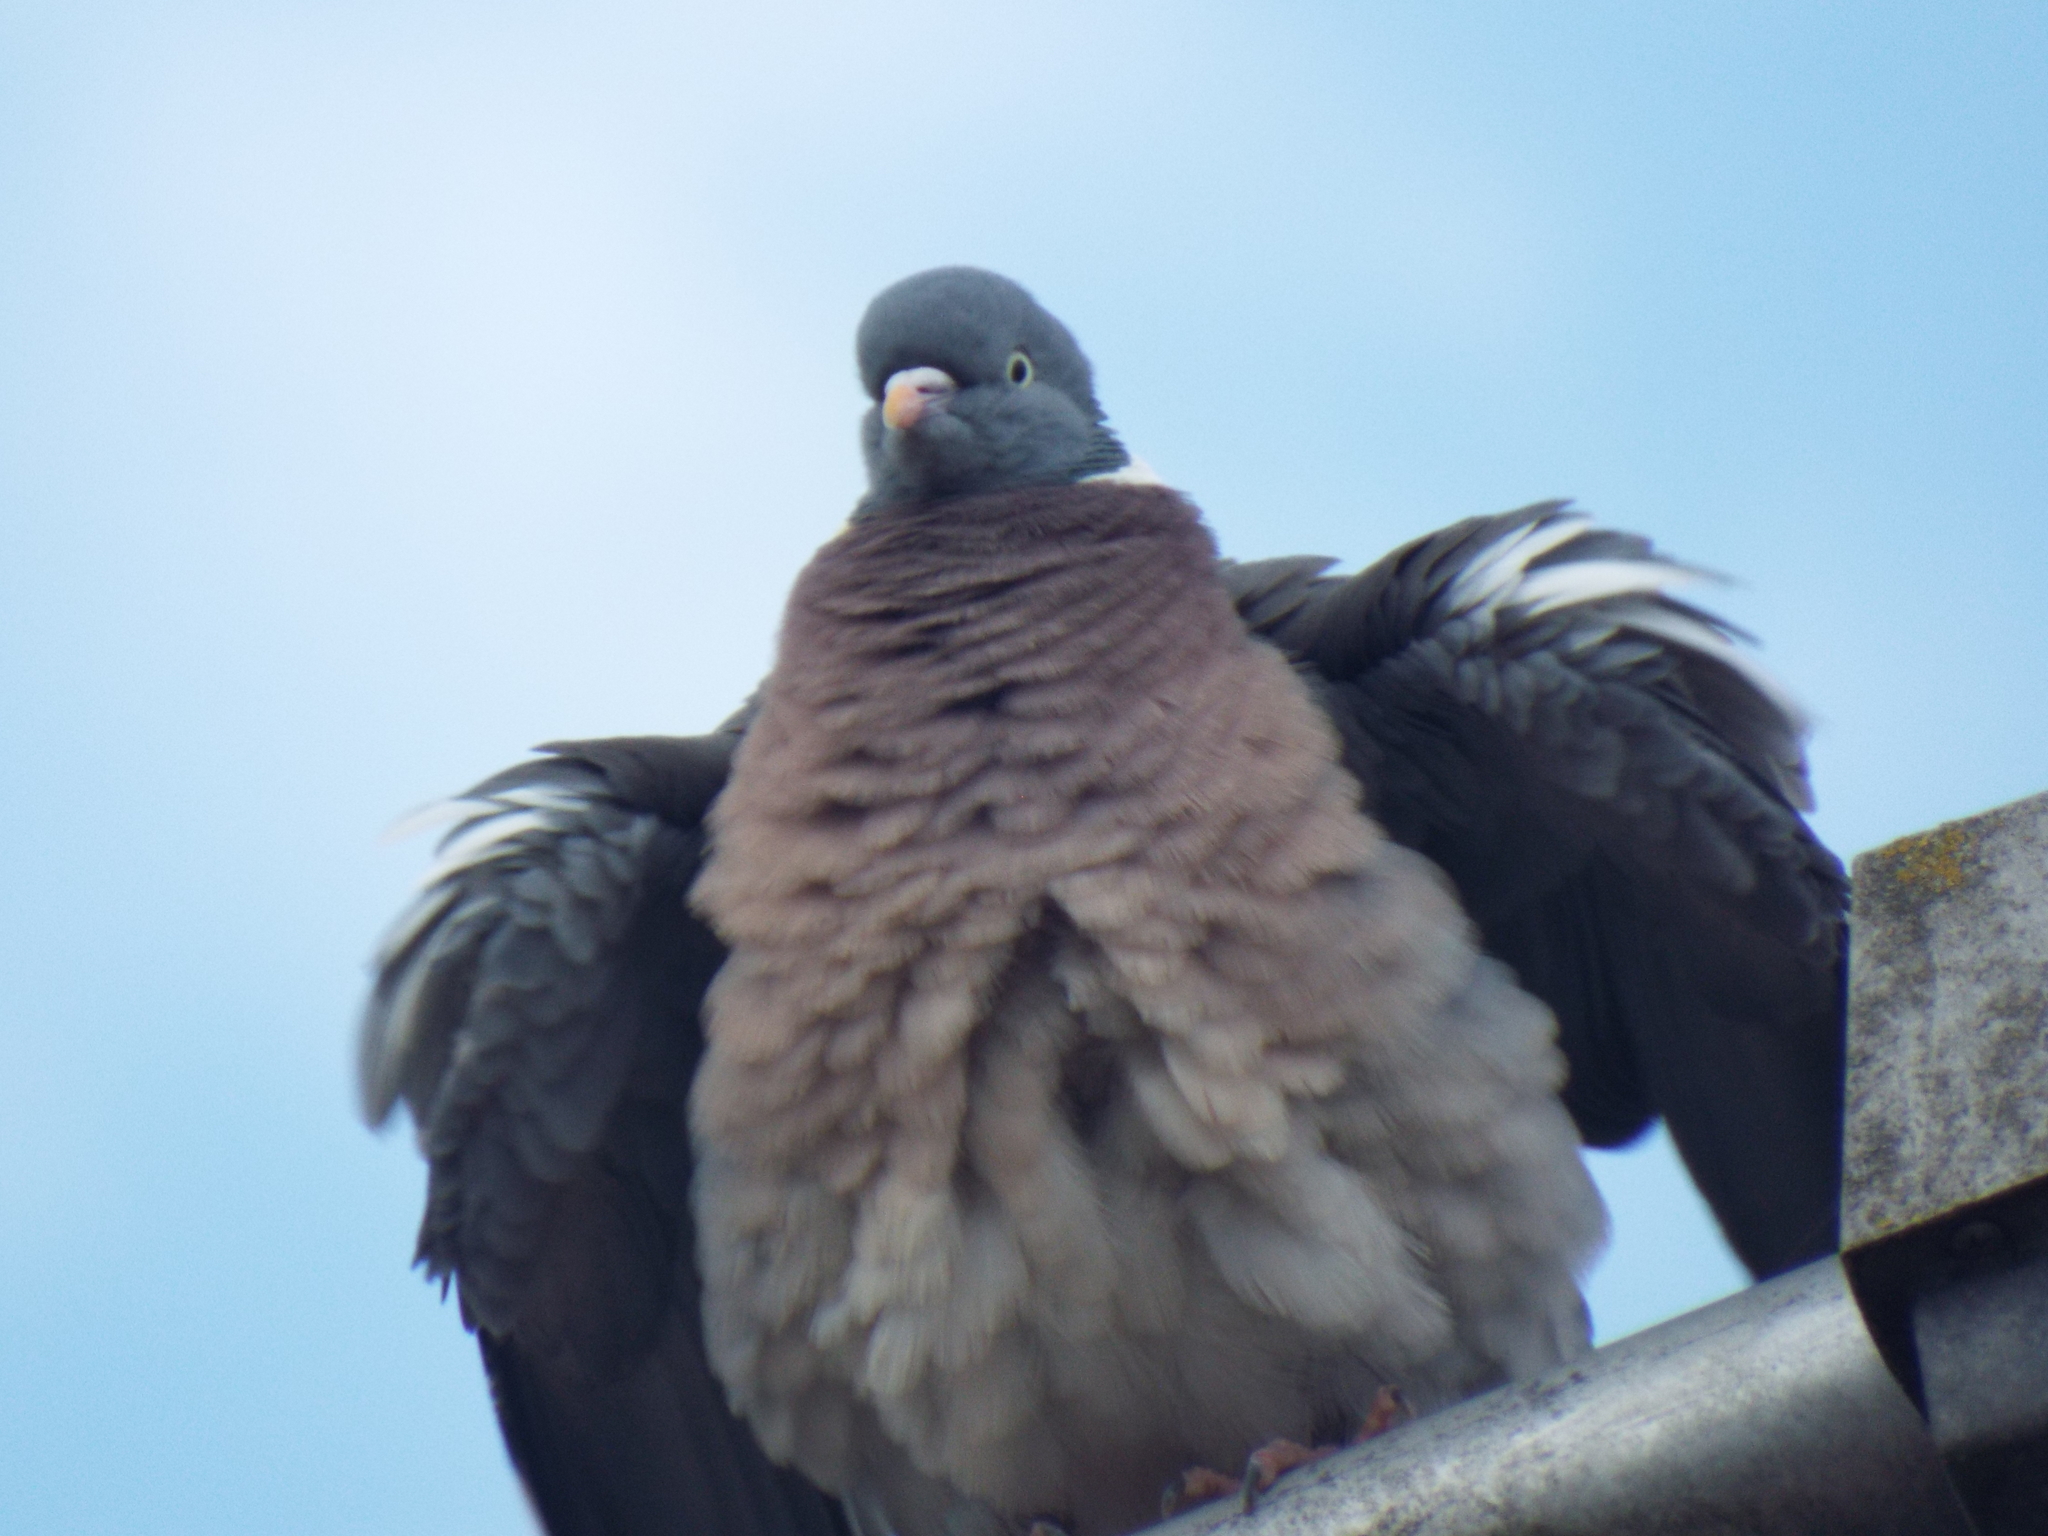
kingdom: Animalia
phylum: Chordata
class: Aves
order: Columbiformes
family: Columbidae
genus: Columba
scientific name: Columba palumbus
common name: Common wood pigeon
